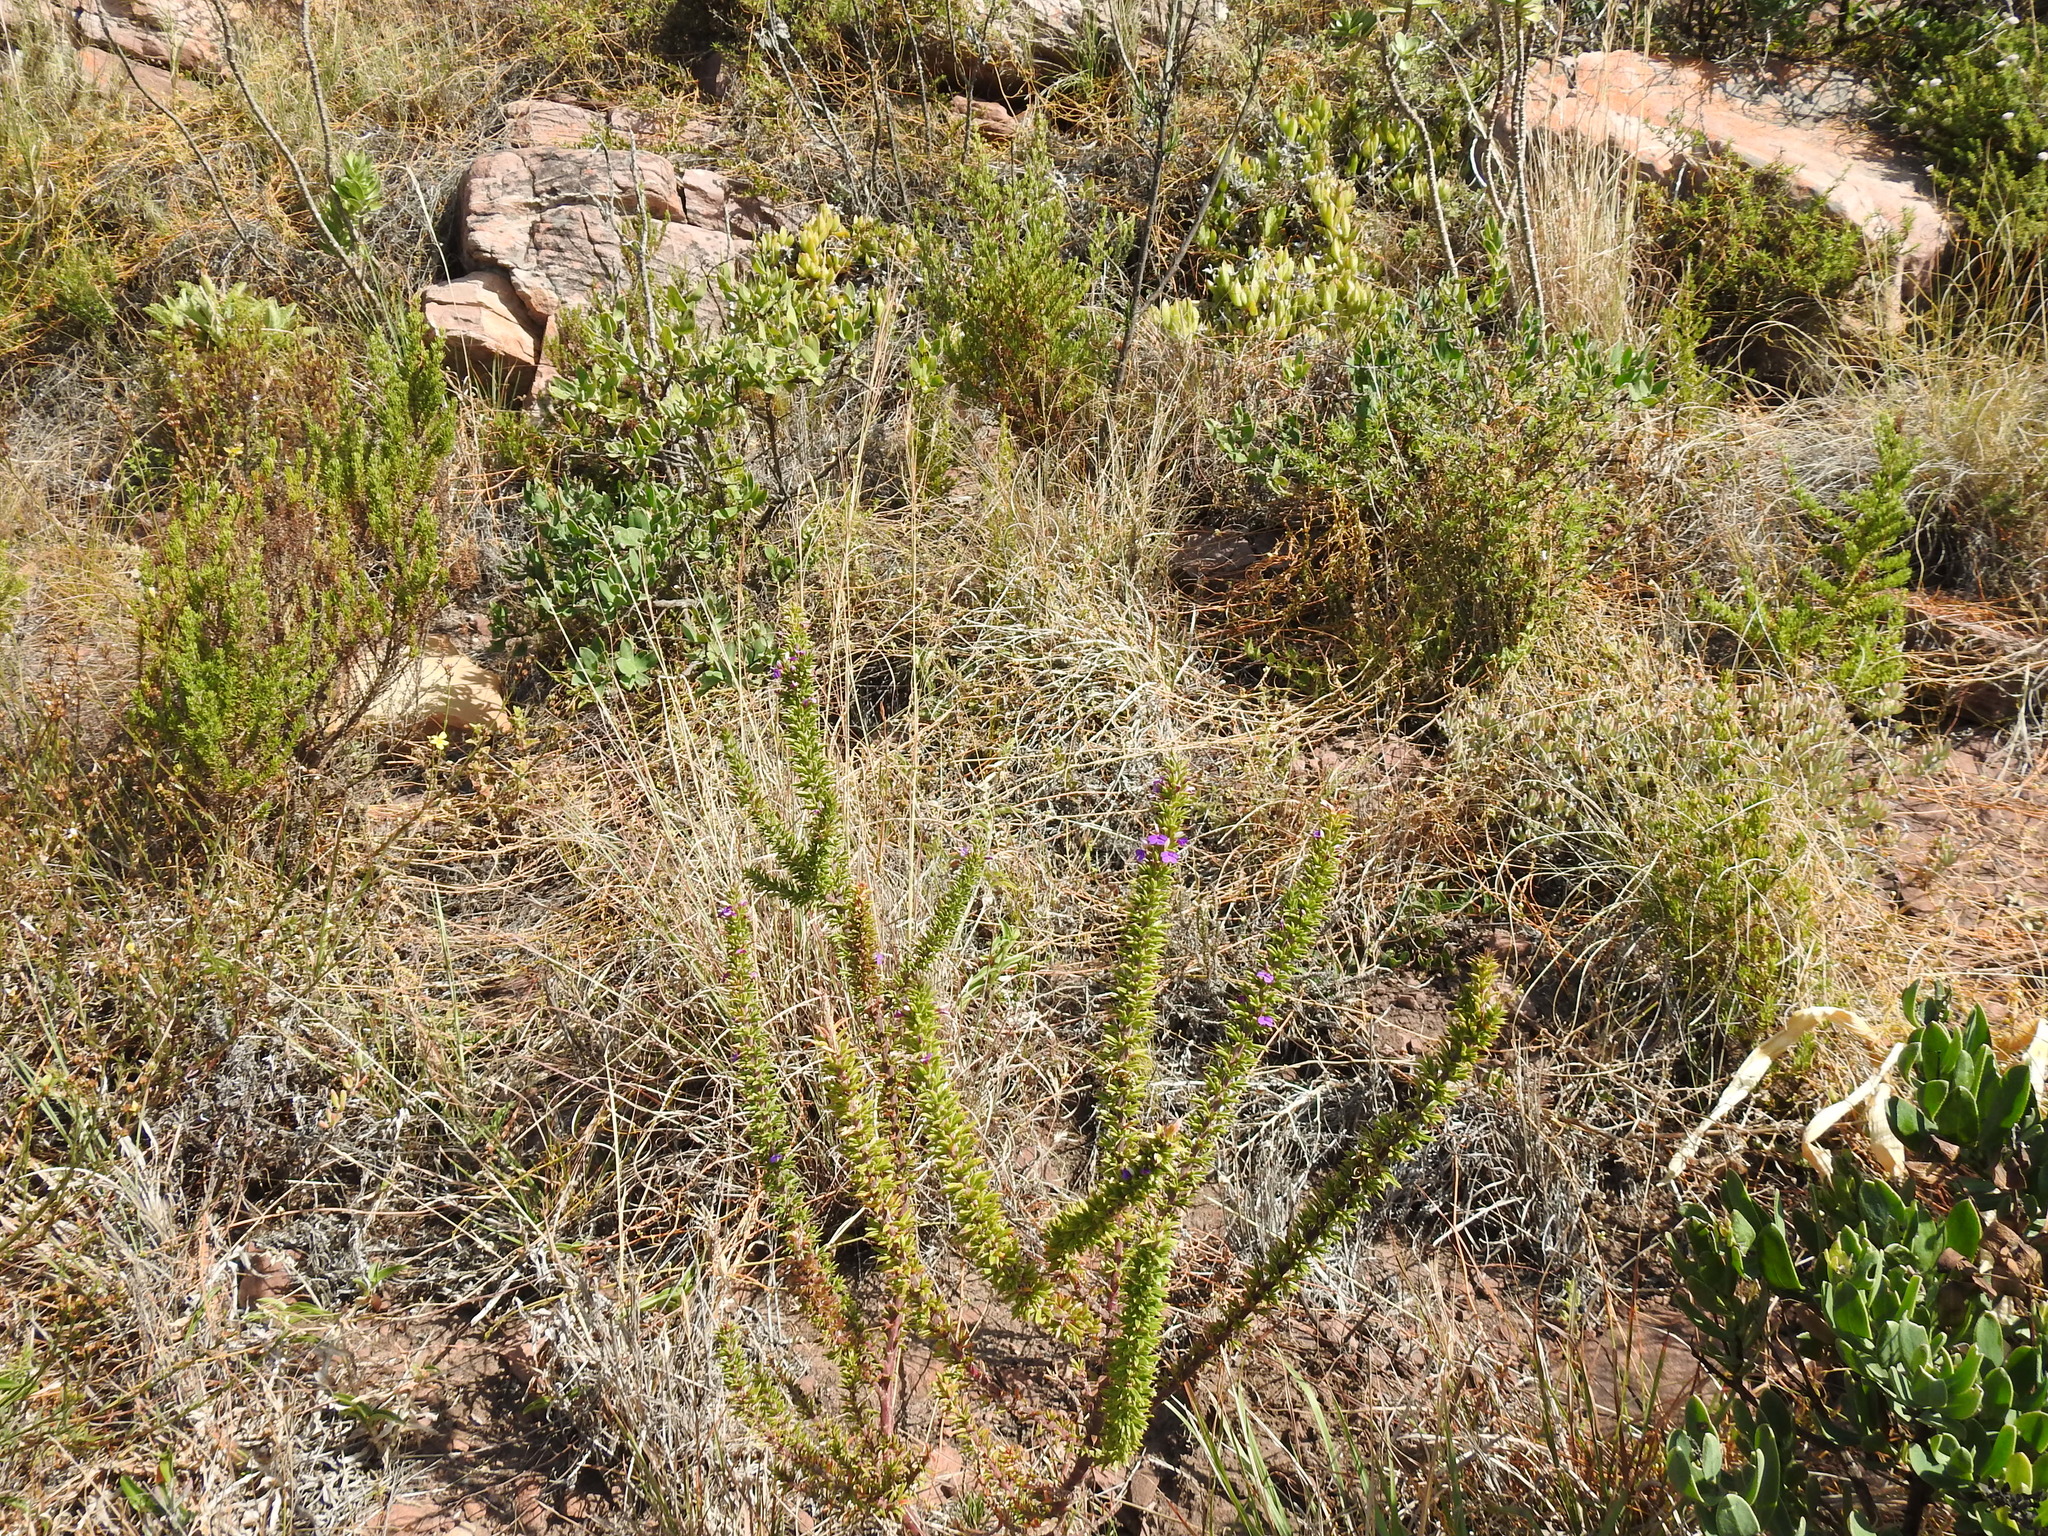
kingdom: Plantae
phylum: Tracheophyta
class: Magnoliopsida
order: Fabales
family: Polygalaceae
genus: Muraltia
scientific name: Muraltia heisteria
